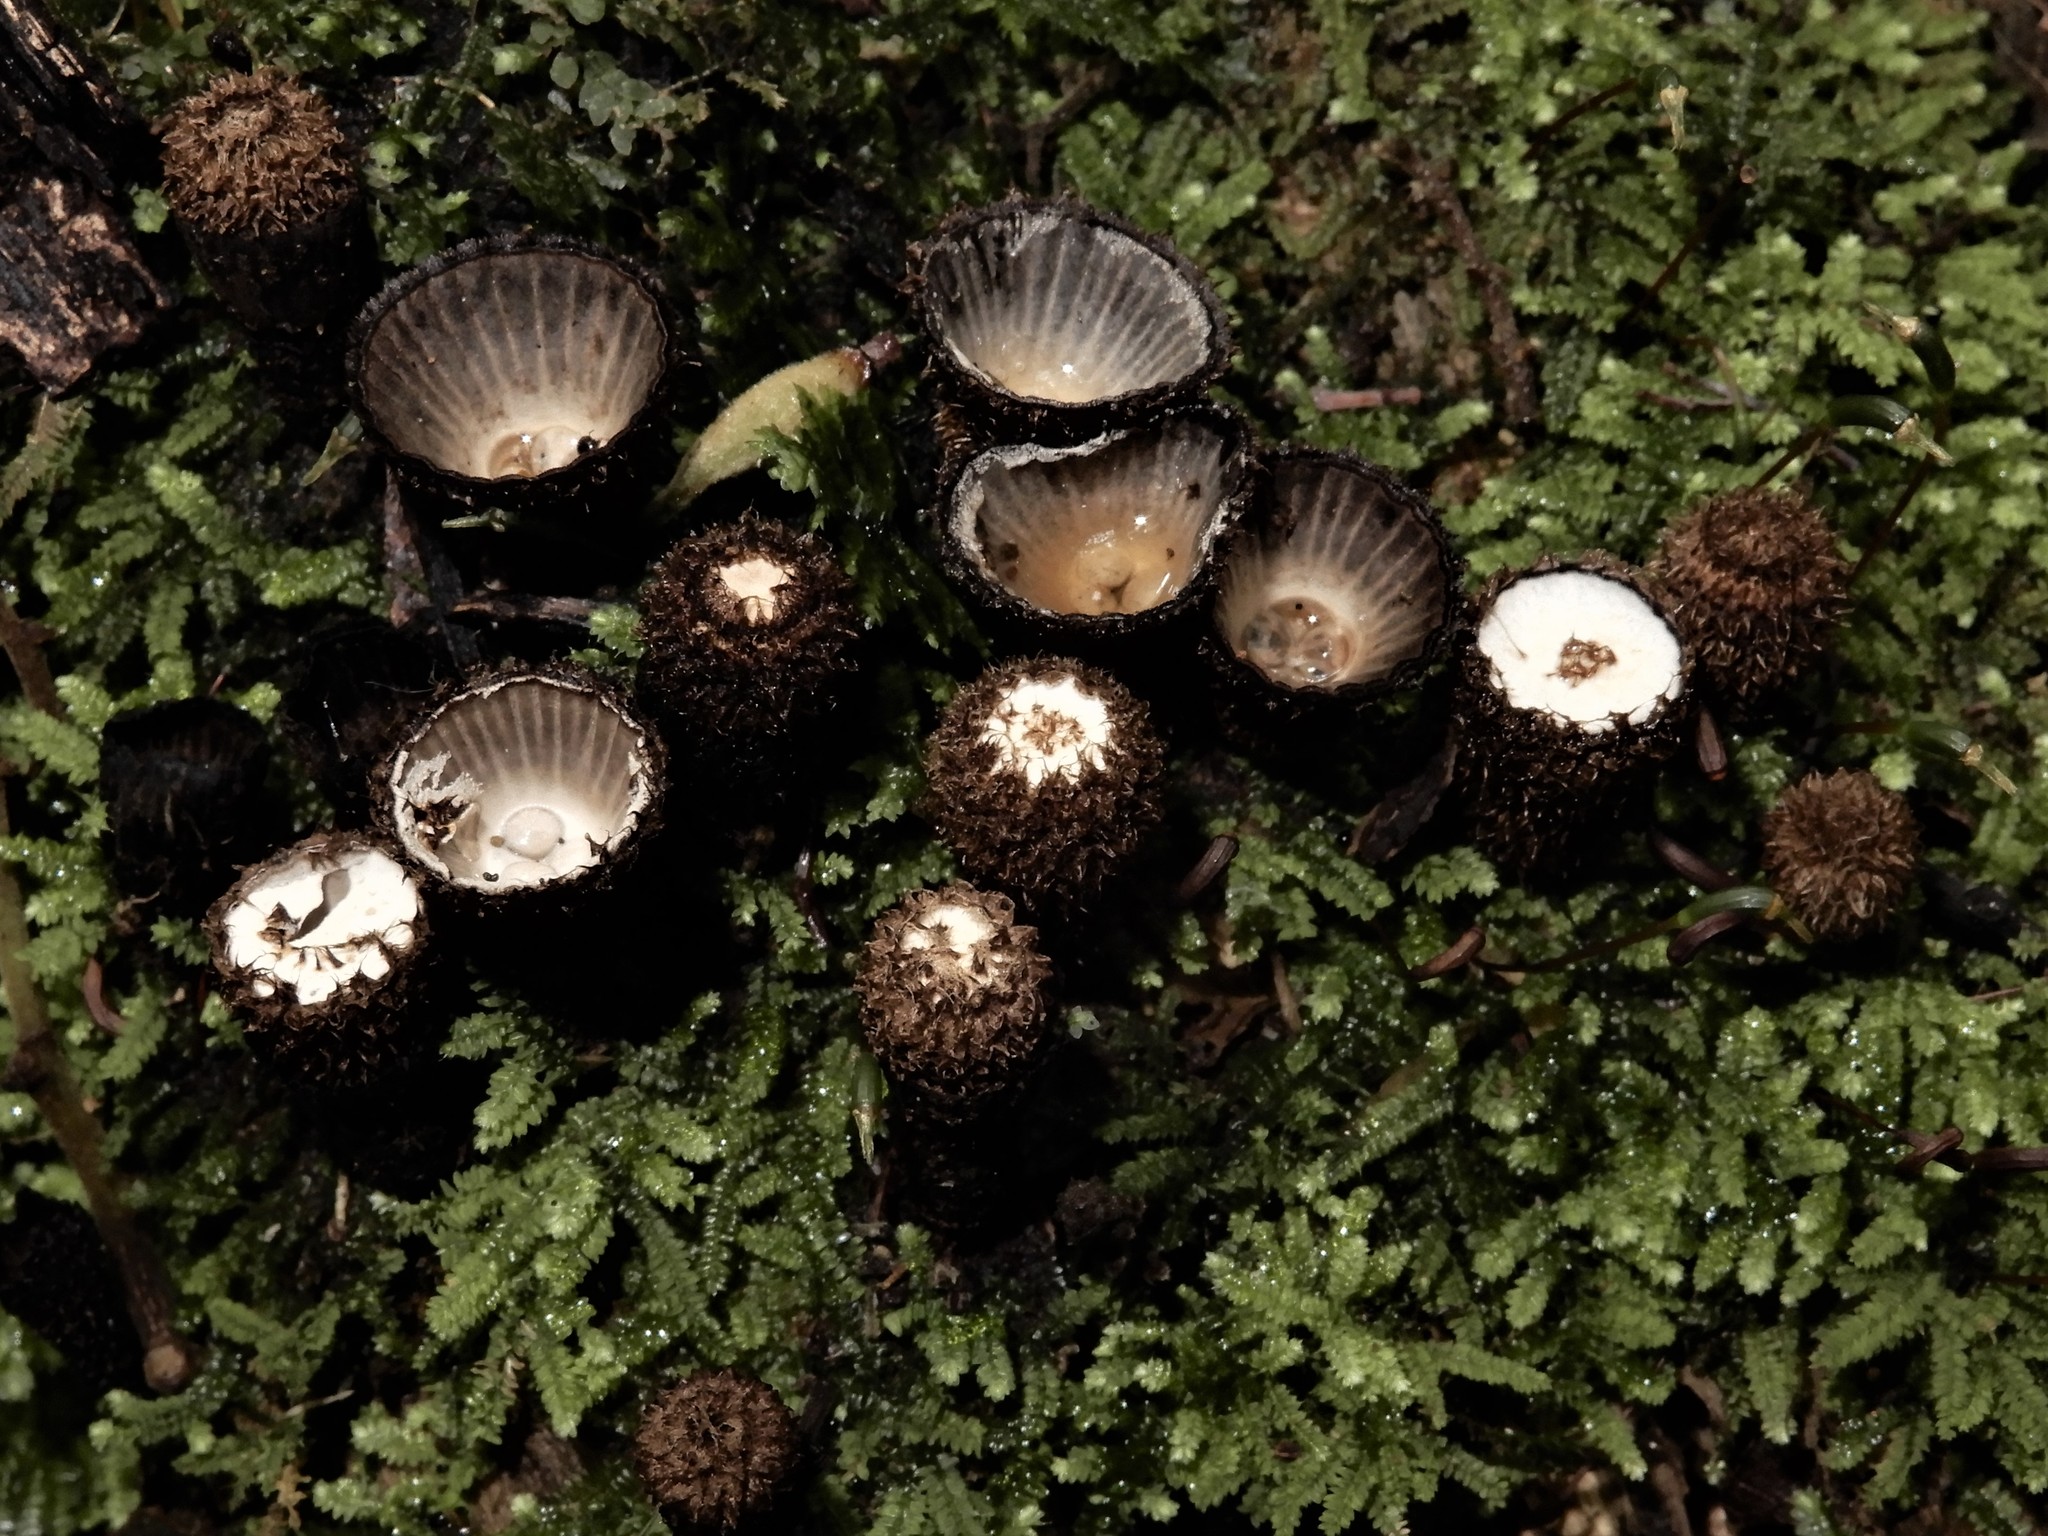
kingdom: Fungi
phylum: Basidiomycota
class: Agaricomycetes
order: Agaricales
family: Agaricaceae
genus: Cyathus
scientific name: Cyathus striatus
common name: Fluted bird's nest
